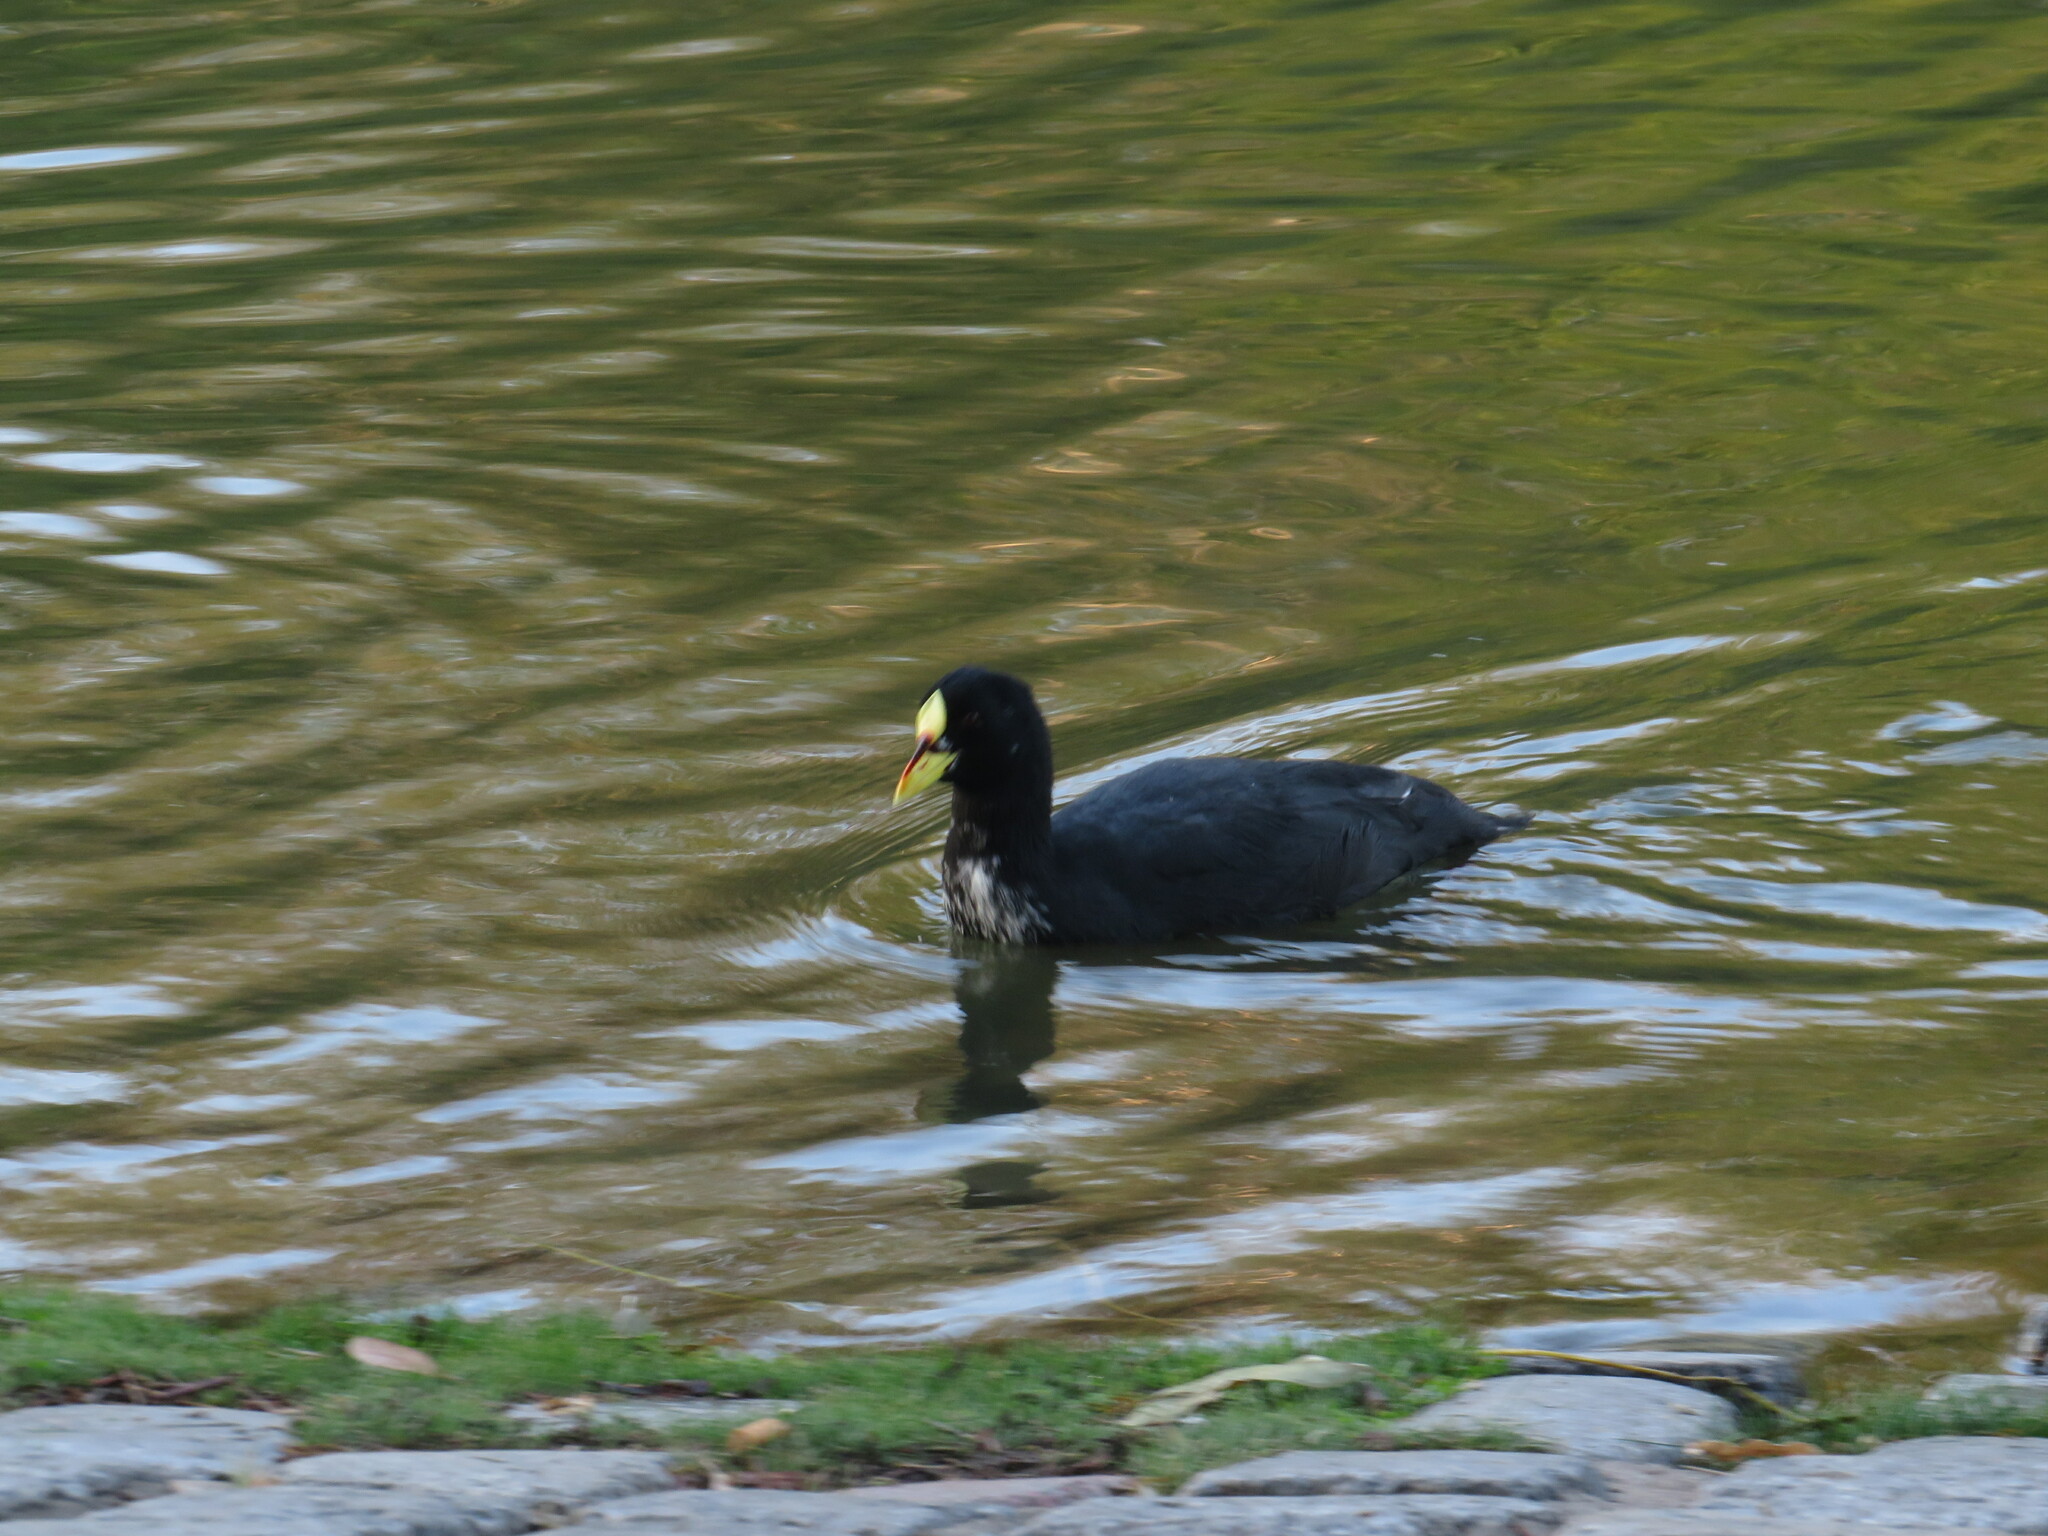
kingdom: Animalia
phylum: Chordata
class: Aves
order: Gruiformes
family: Rallidae
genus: Fulica
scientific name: Fulica armillata
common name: Red-gartered coot
